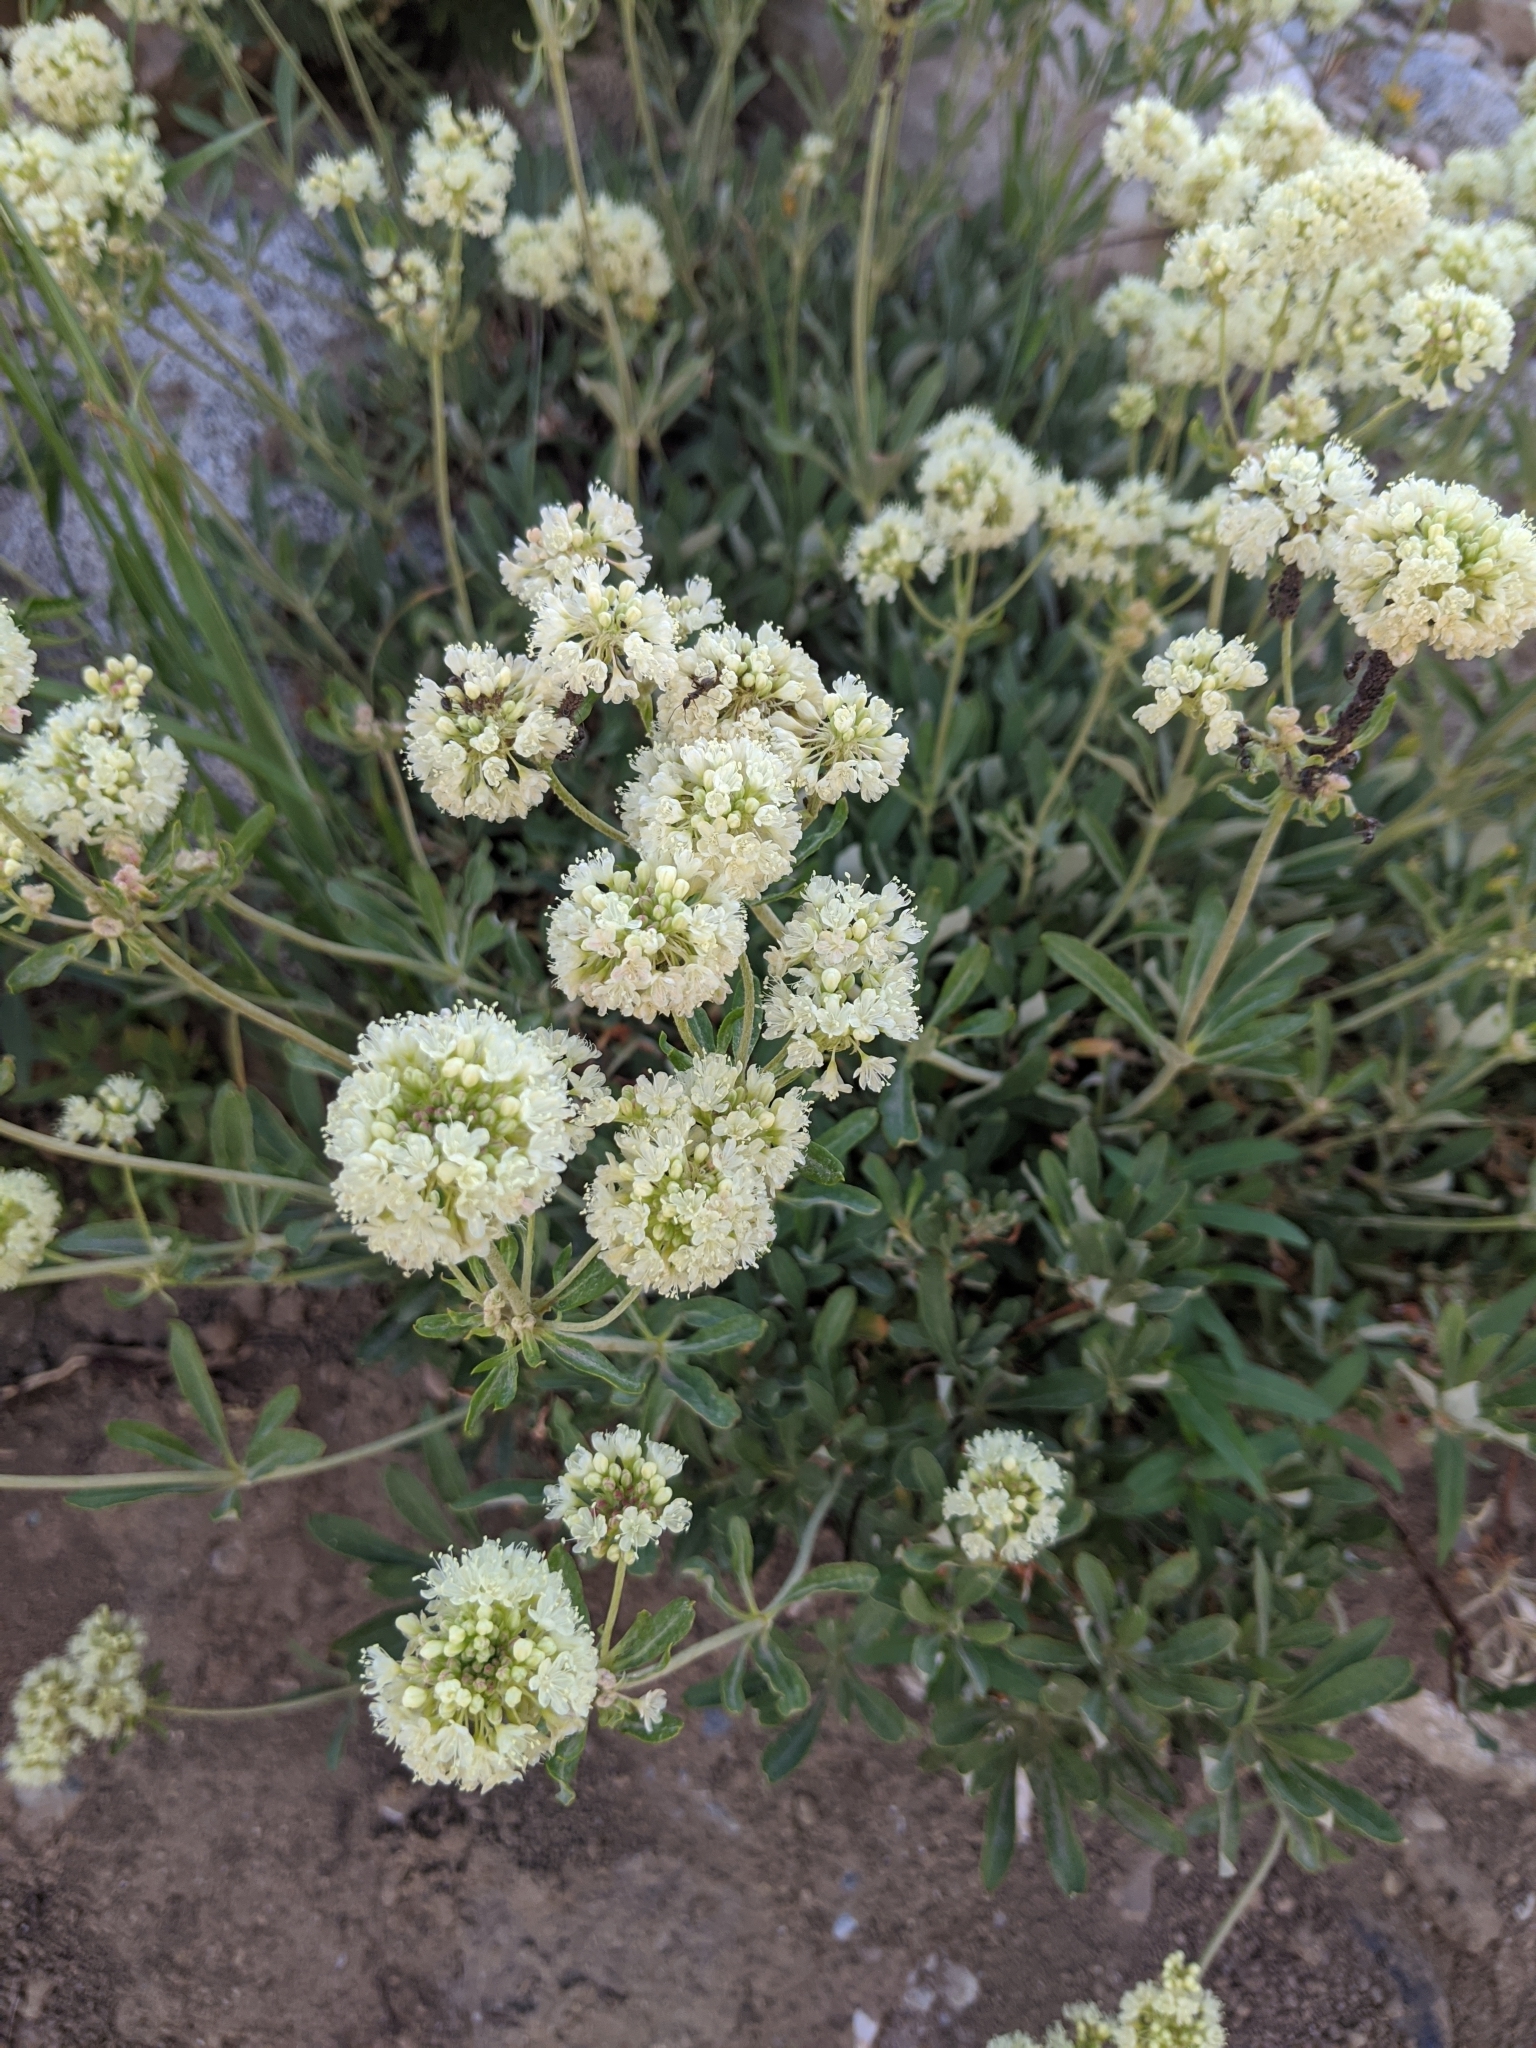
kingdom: Plantae
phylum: Tracheophyta
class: Magnoliopsida
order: Caryophyllales
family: Polygonaceae
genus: Eriogonum
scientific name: Eriogonum heracleoides
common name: Wyeth's buckwheat
